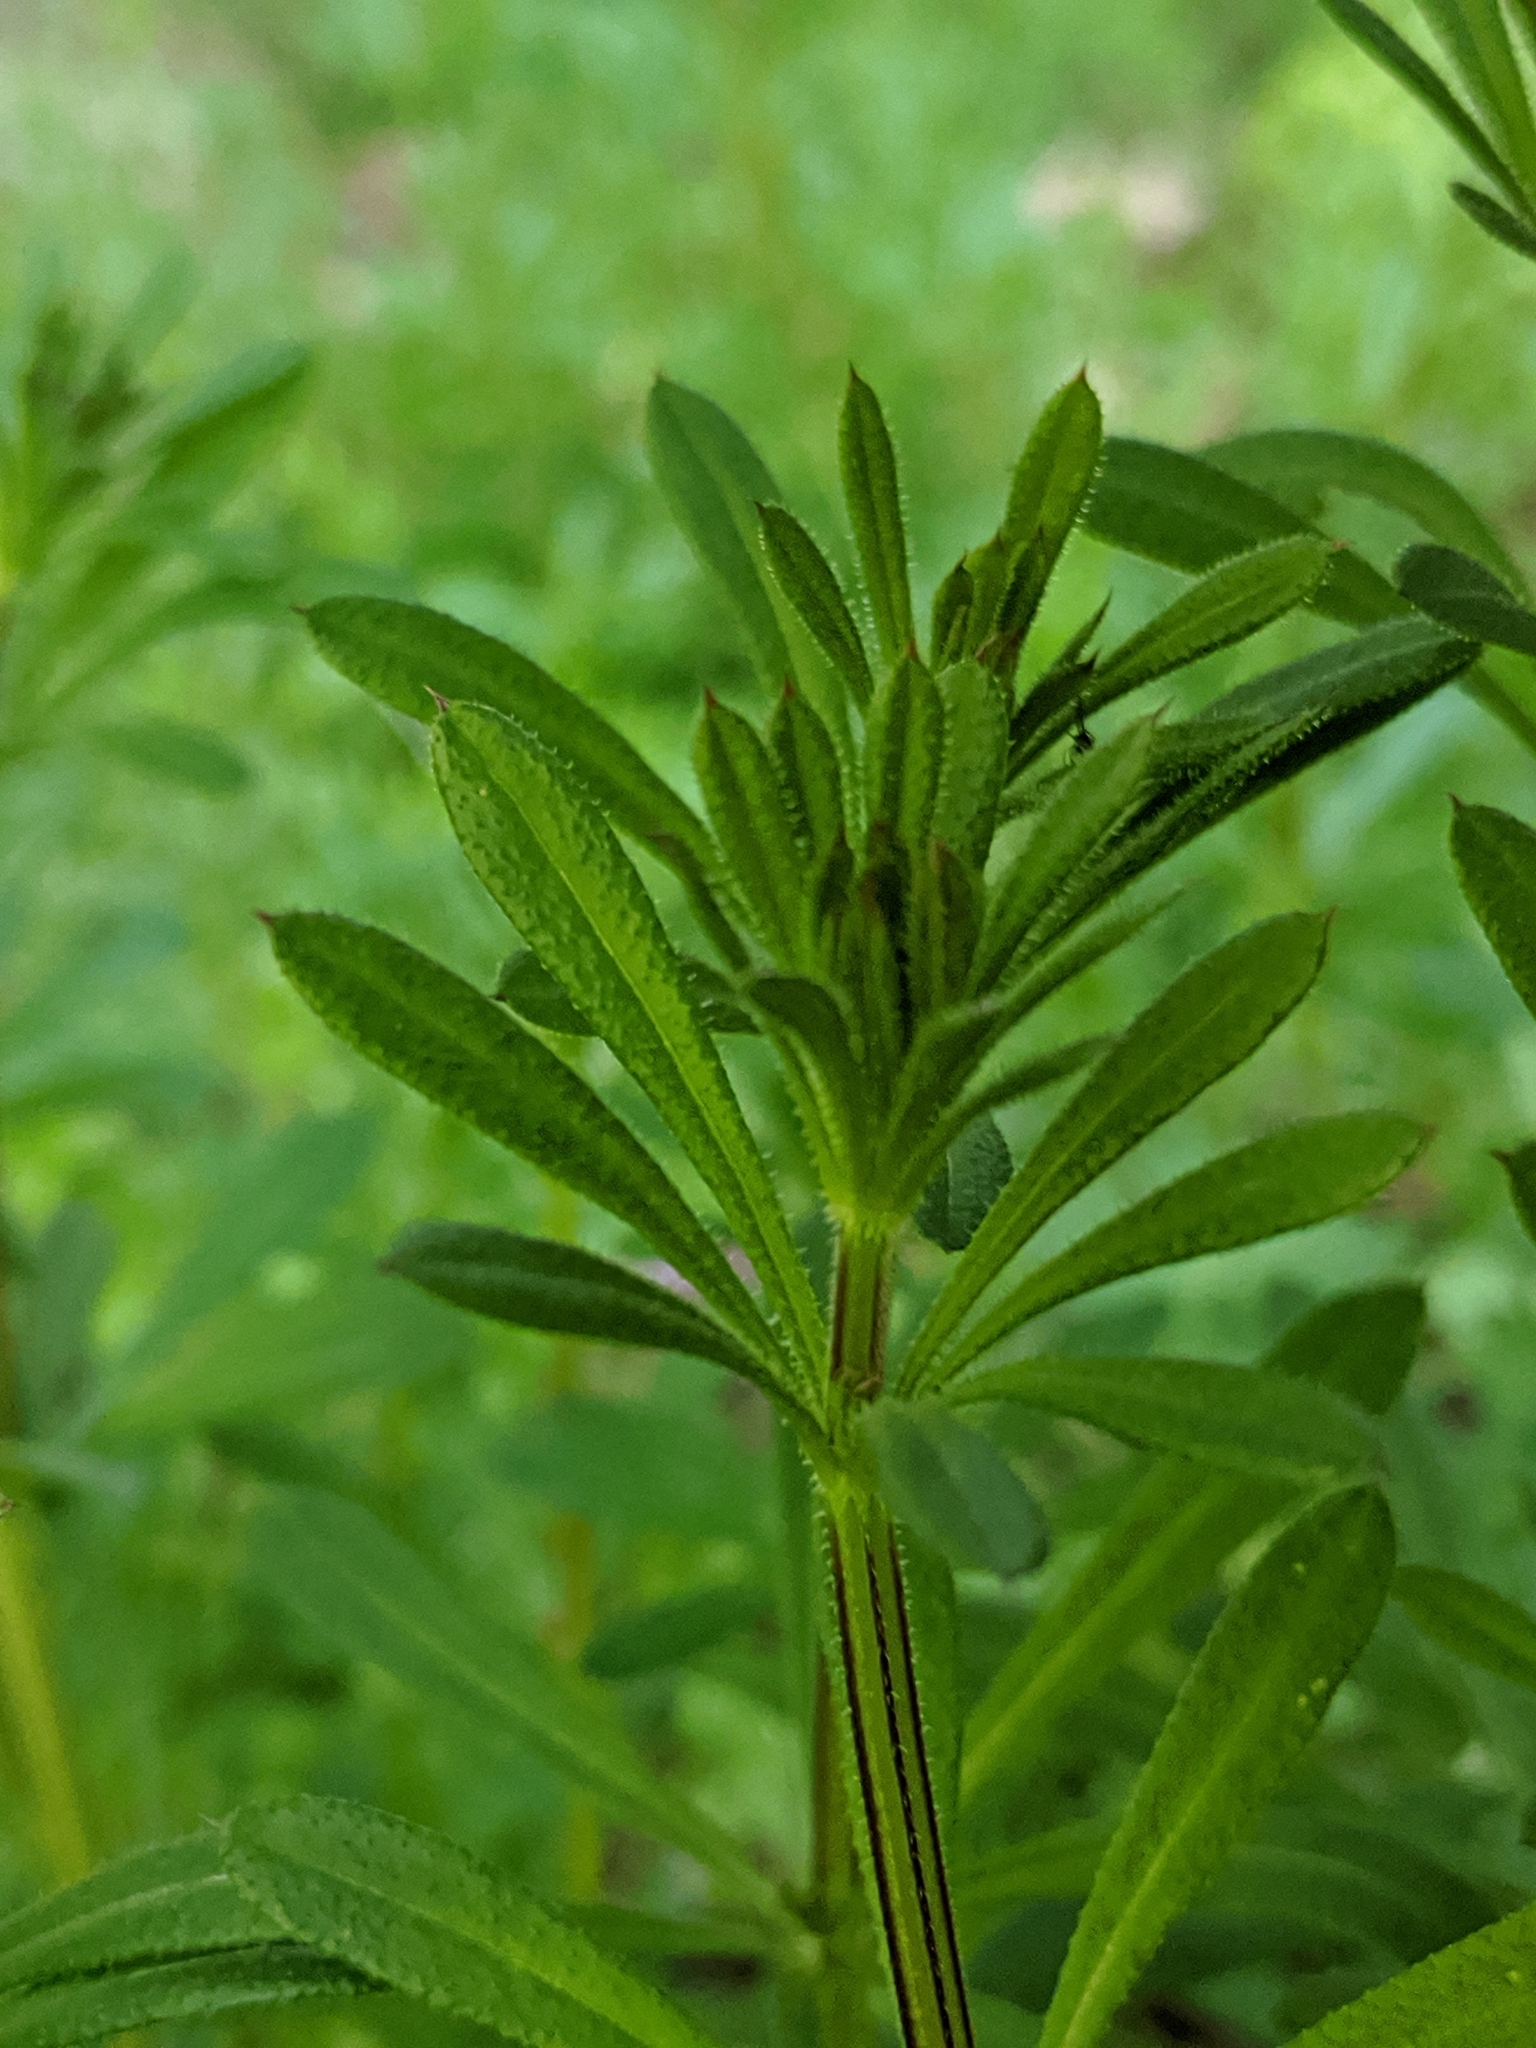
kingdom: Plantae
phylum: Tracheophyta
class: Magnoliopsida
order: Gentianales
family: Rubiaceae
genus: Galium
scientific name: Galium aparine
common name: Cleavers
